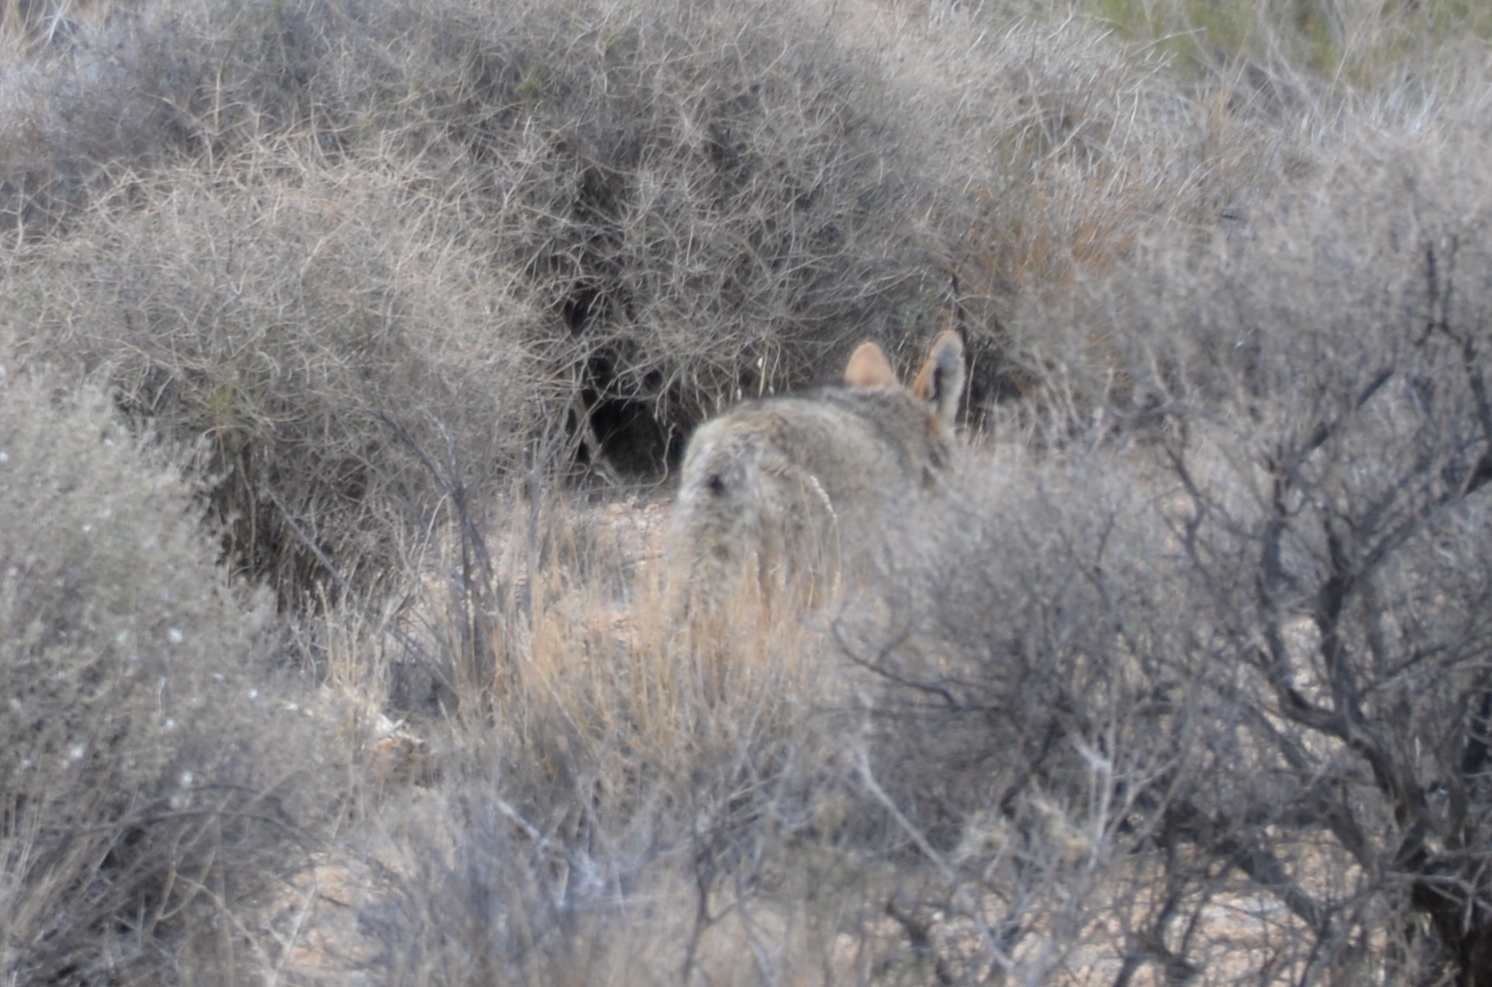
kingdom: Animalia
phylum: Chordata
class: Mammalia
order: Carnivora
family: Canidae
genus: Canis
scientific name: Canis latrans
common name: Coyote
